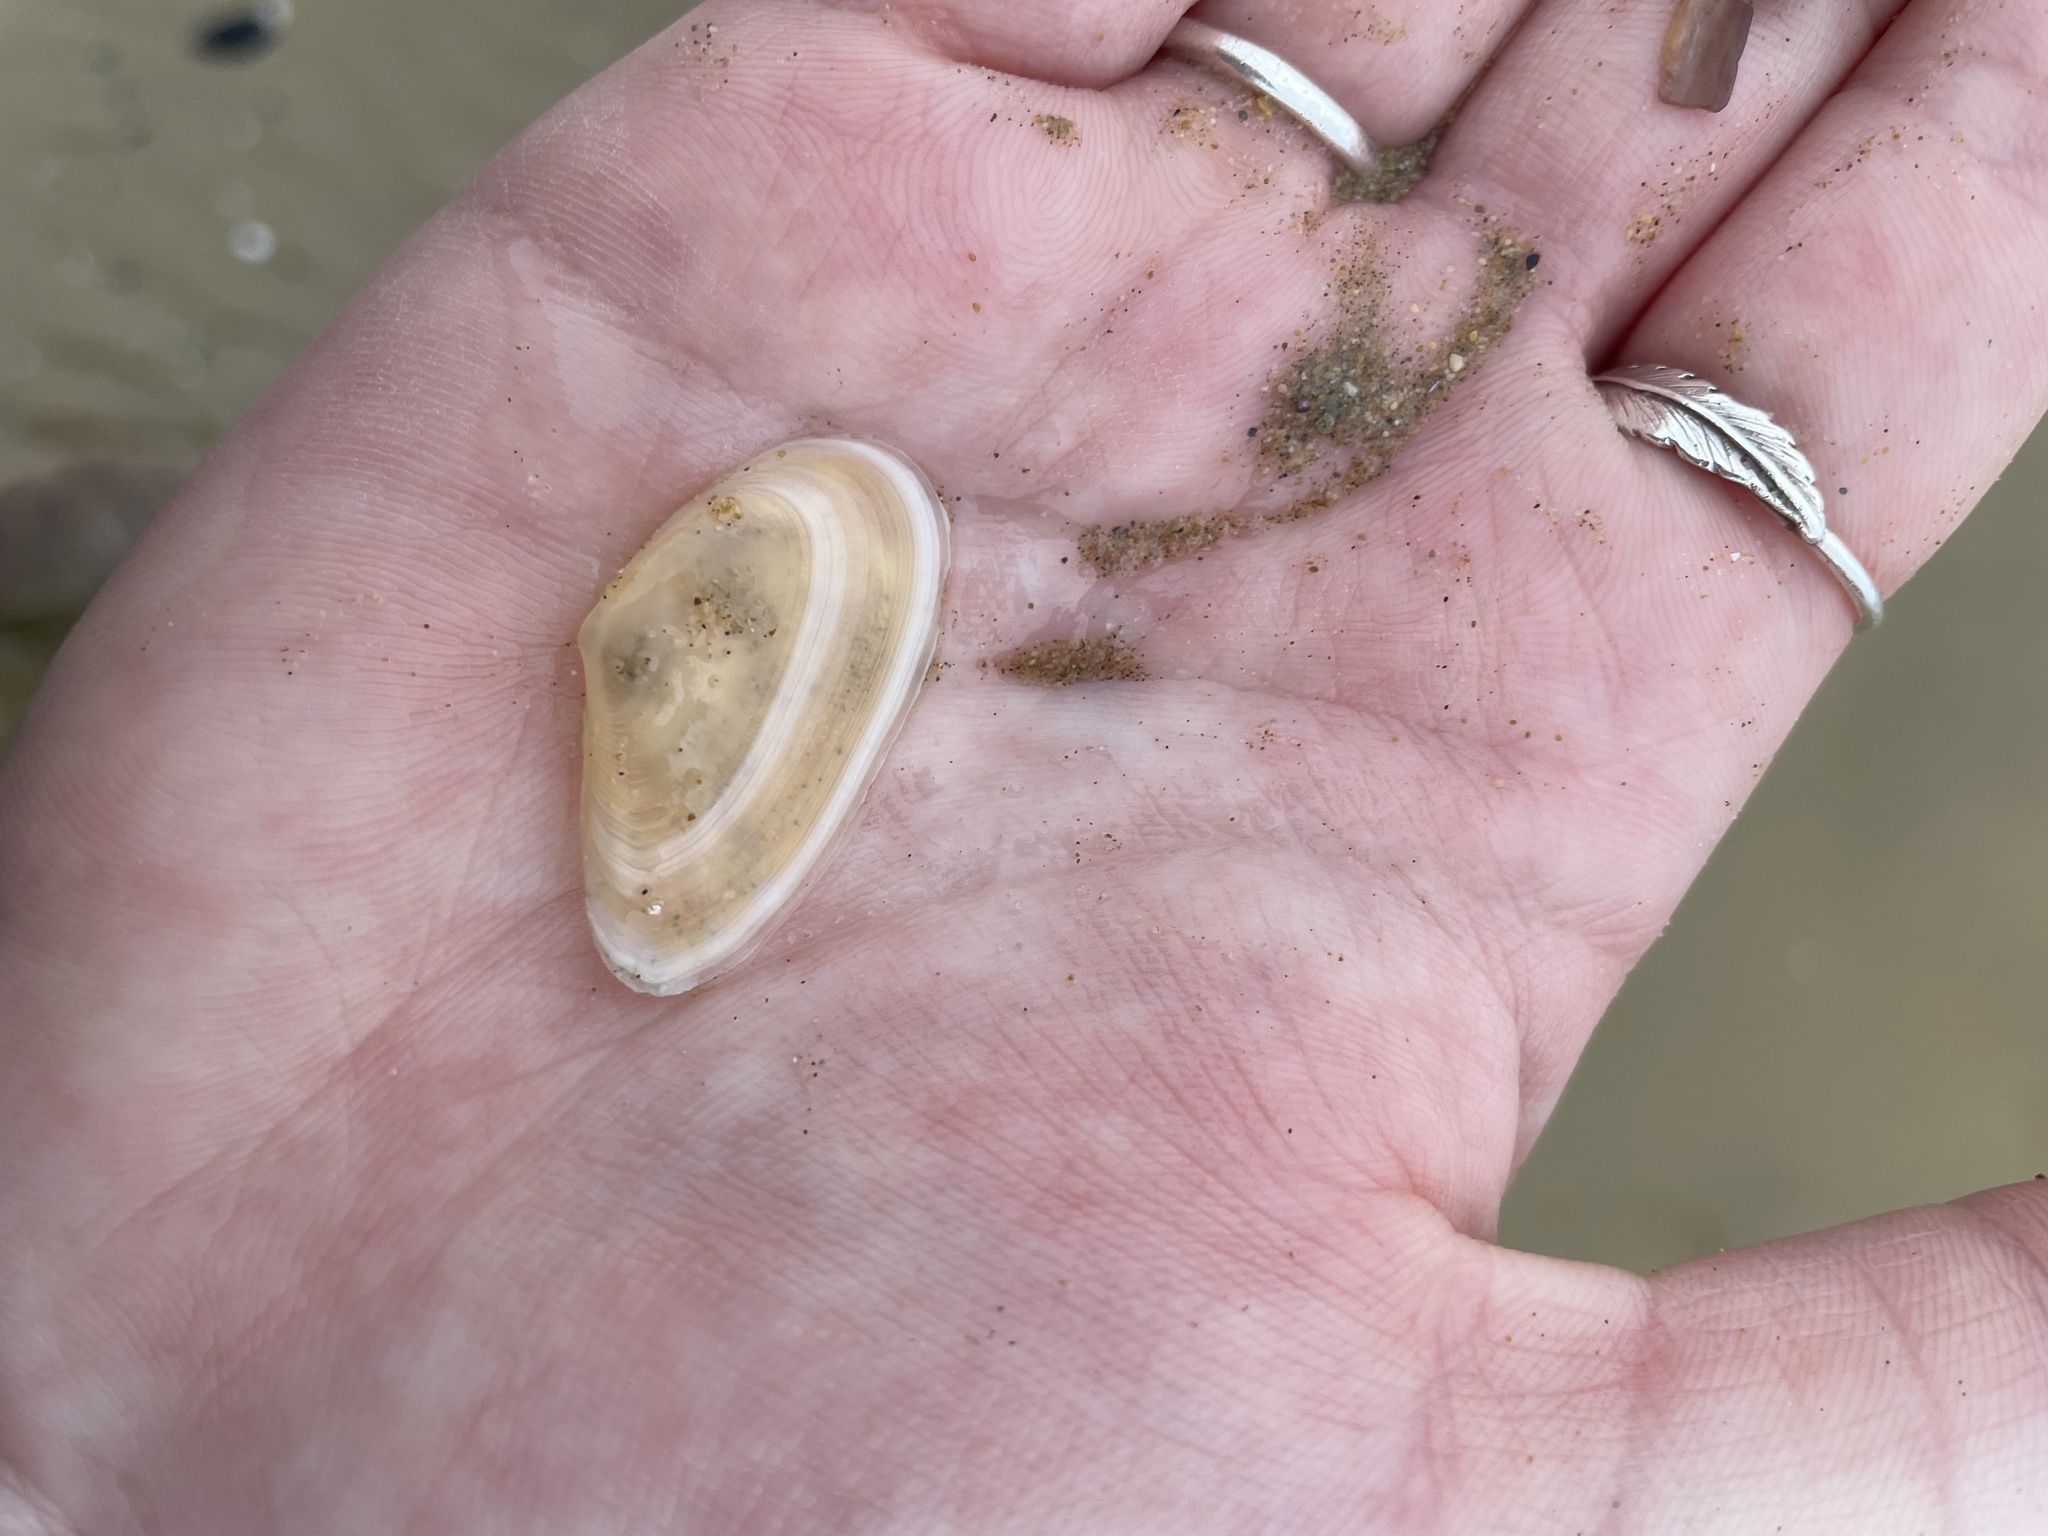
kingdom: Animalia
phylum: Mollusca
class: Bivalvia
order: Cardiida
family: Tellinidae
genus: Peronidia
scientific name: Peronidia albicans
